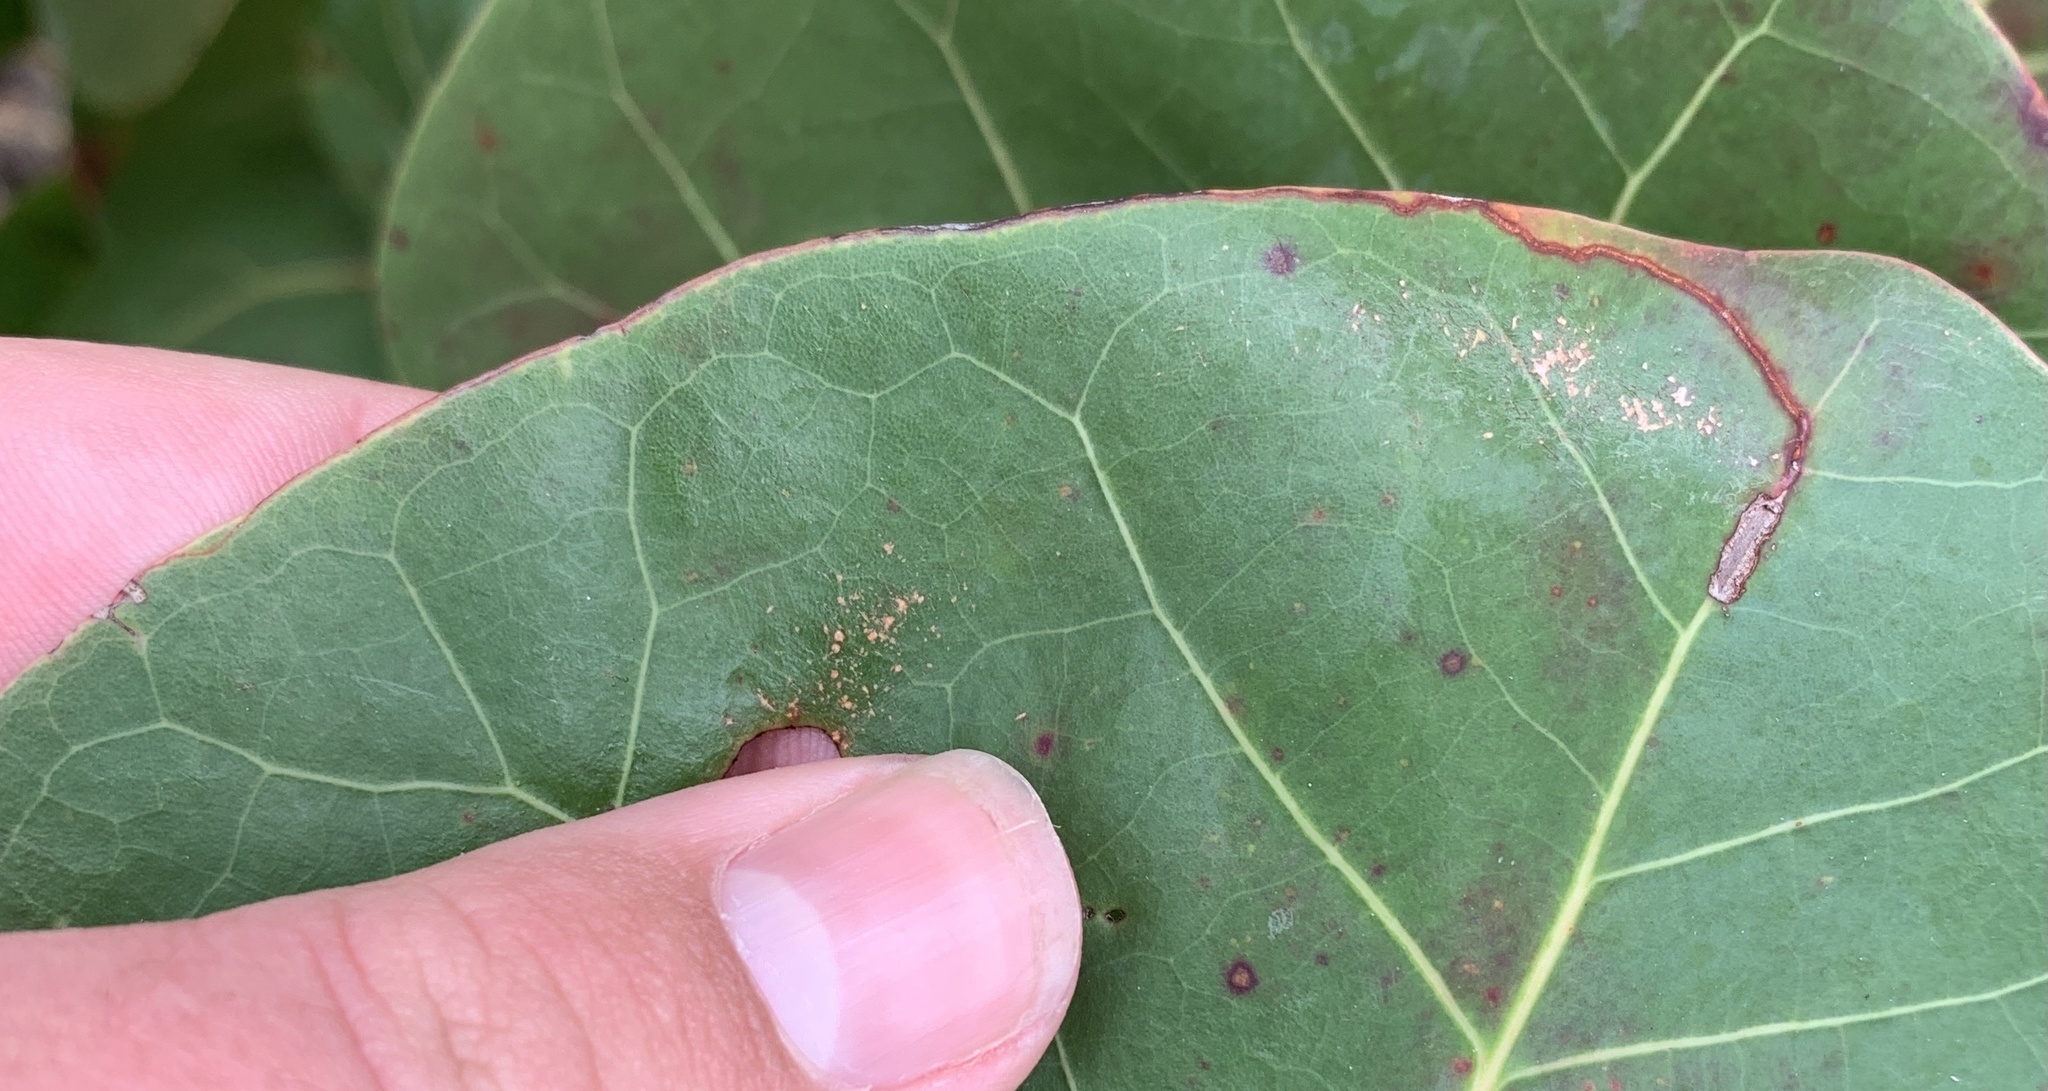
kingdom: Animalia
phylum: Arthropoda
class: Insecta
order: Lepidoptera
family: Nepticulidae
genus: Enteucha
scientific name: Enteucha basidactyla
